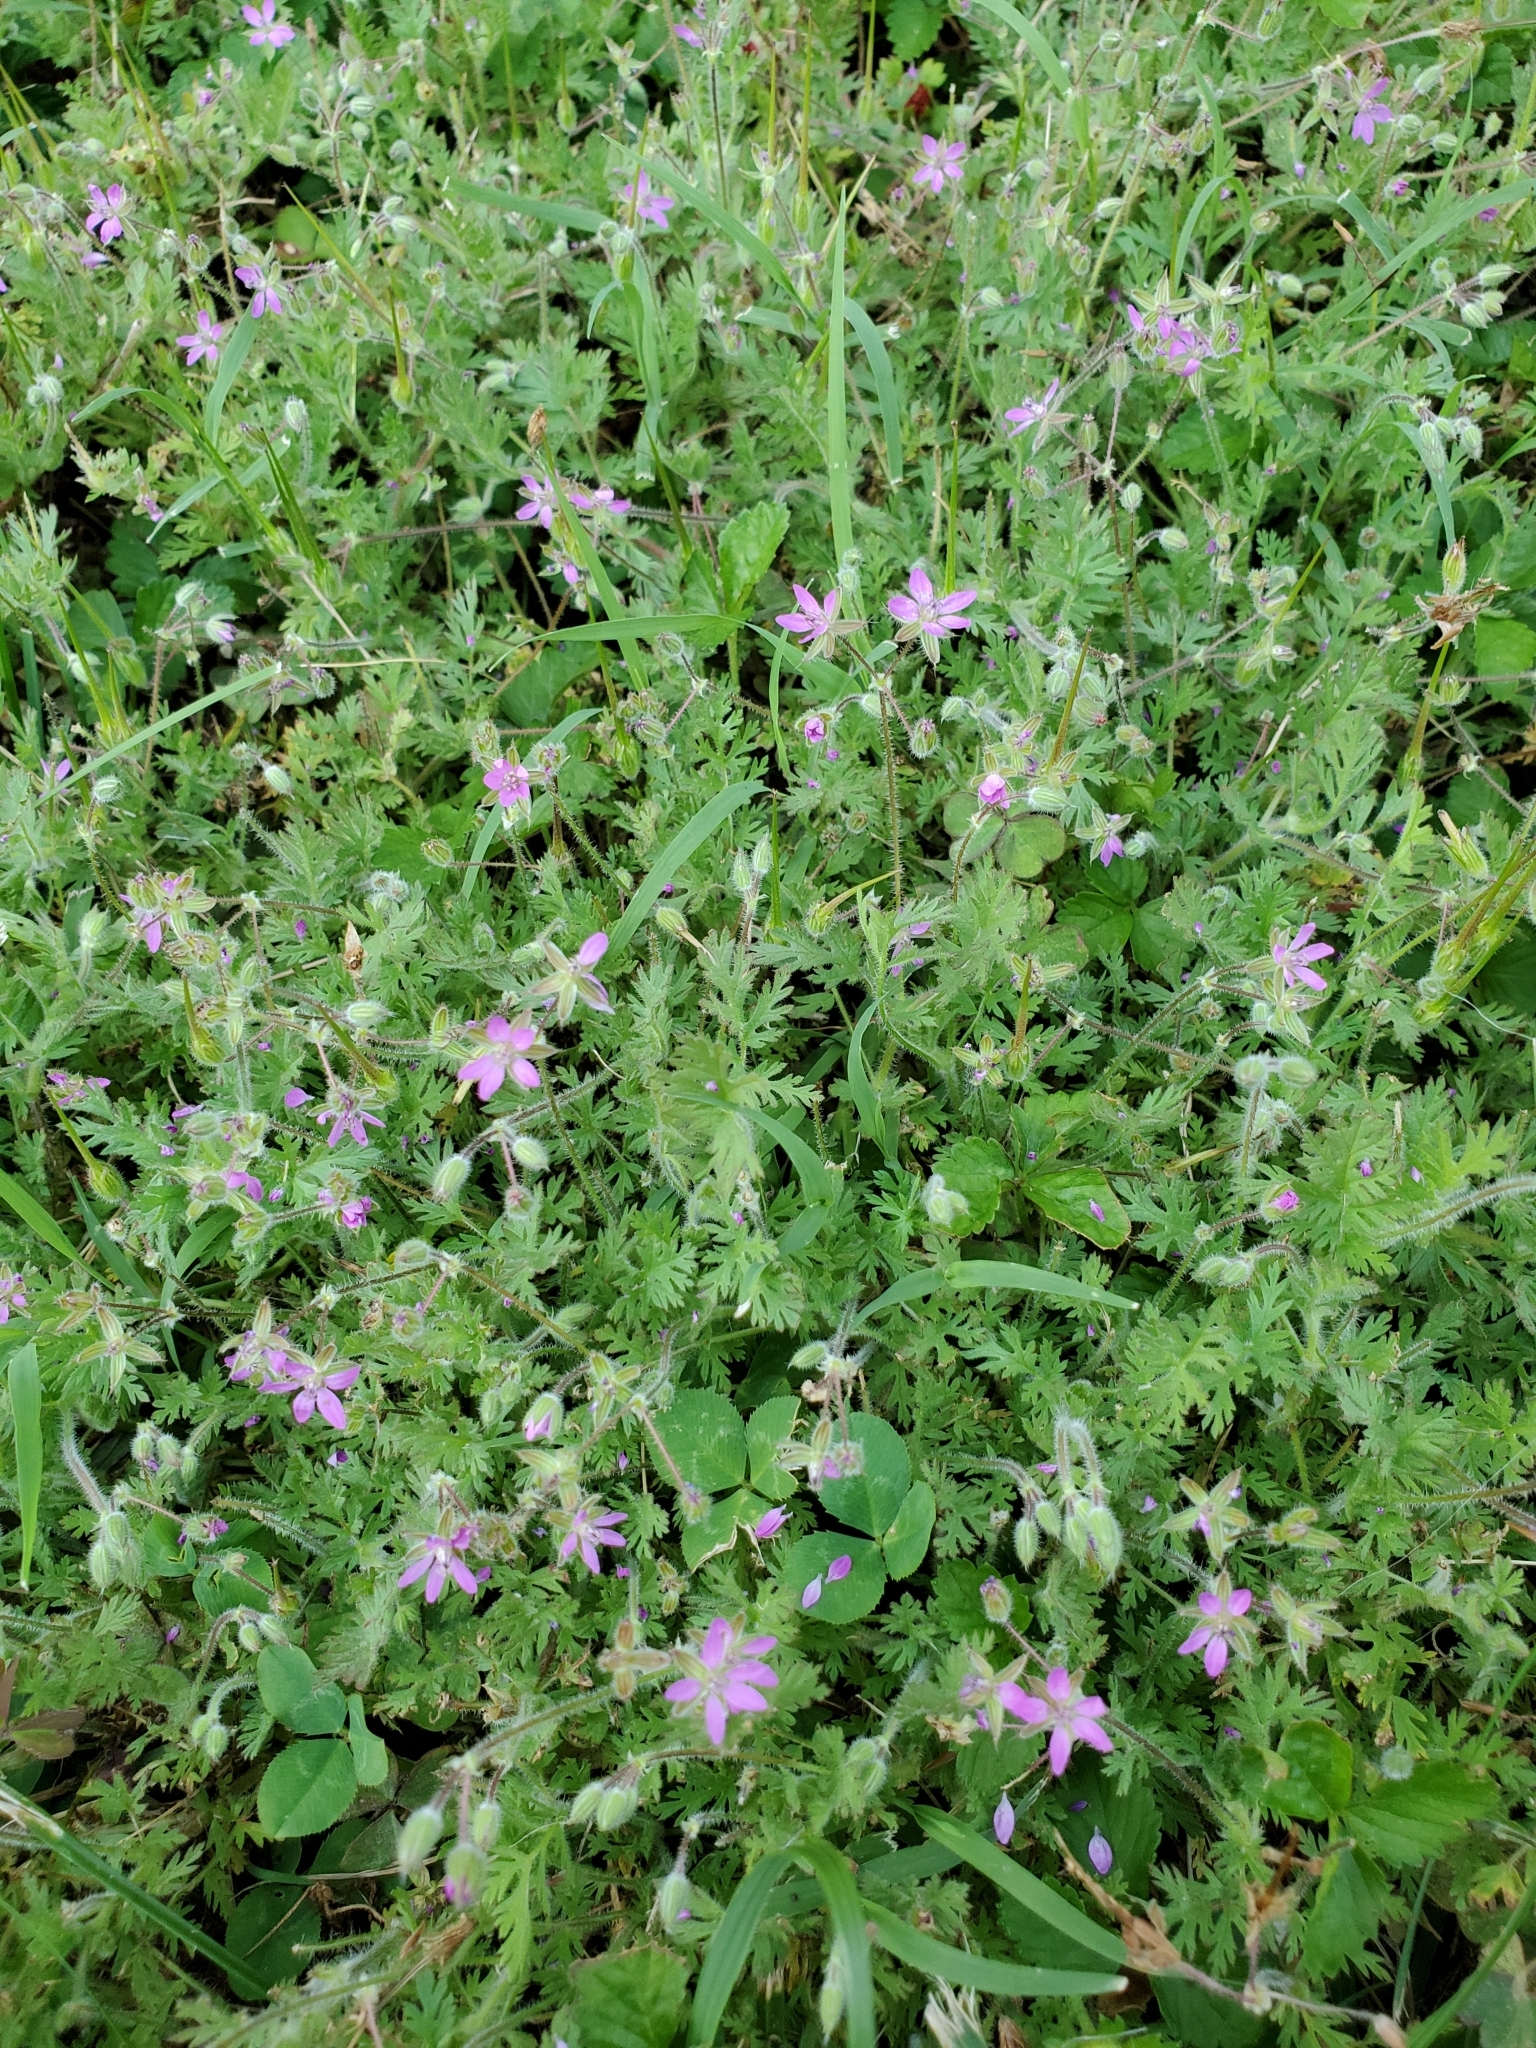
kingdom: Plantae
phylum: Tracheophyta
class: Magnoliopsida
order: Geraniales
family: Geraniaceae
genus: Erodium
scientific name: Erodium cicutarium
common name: Common stork's-bill
